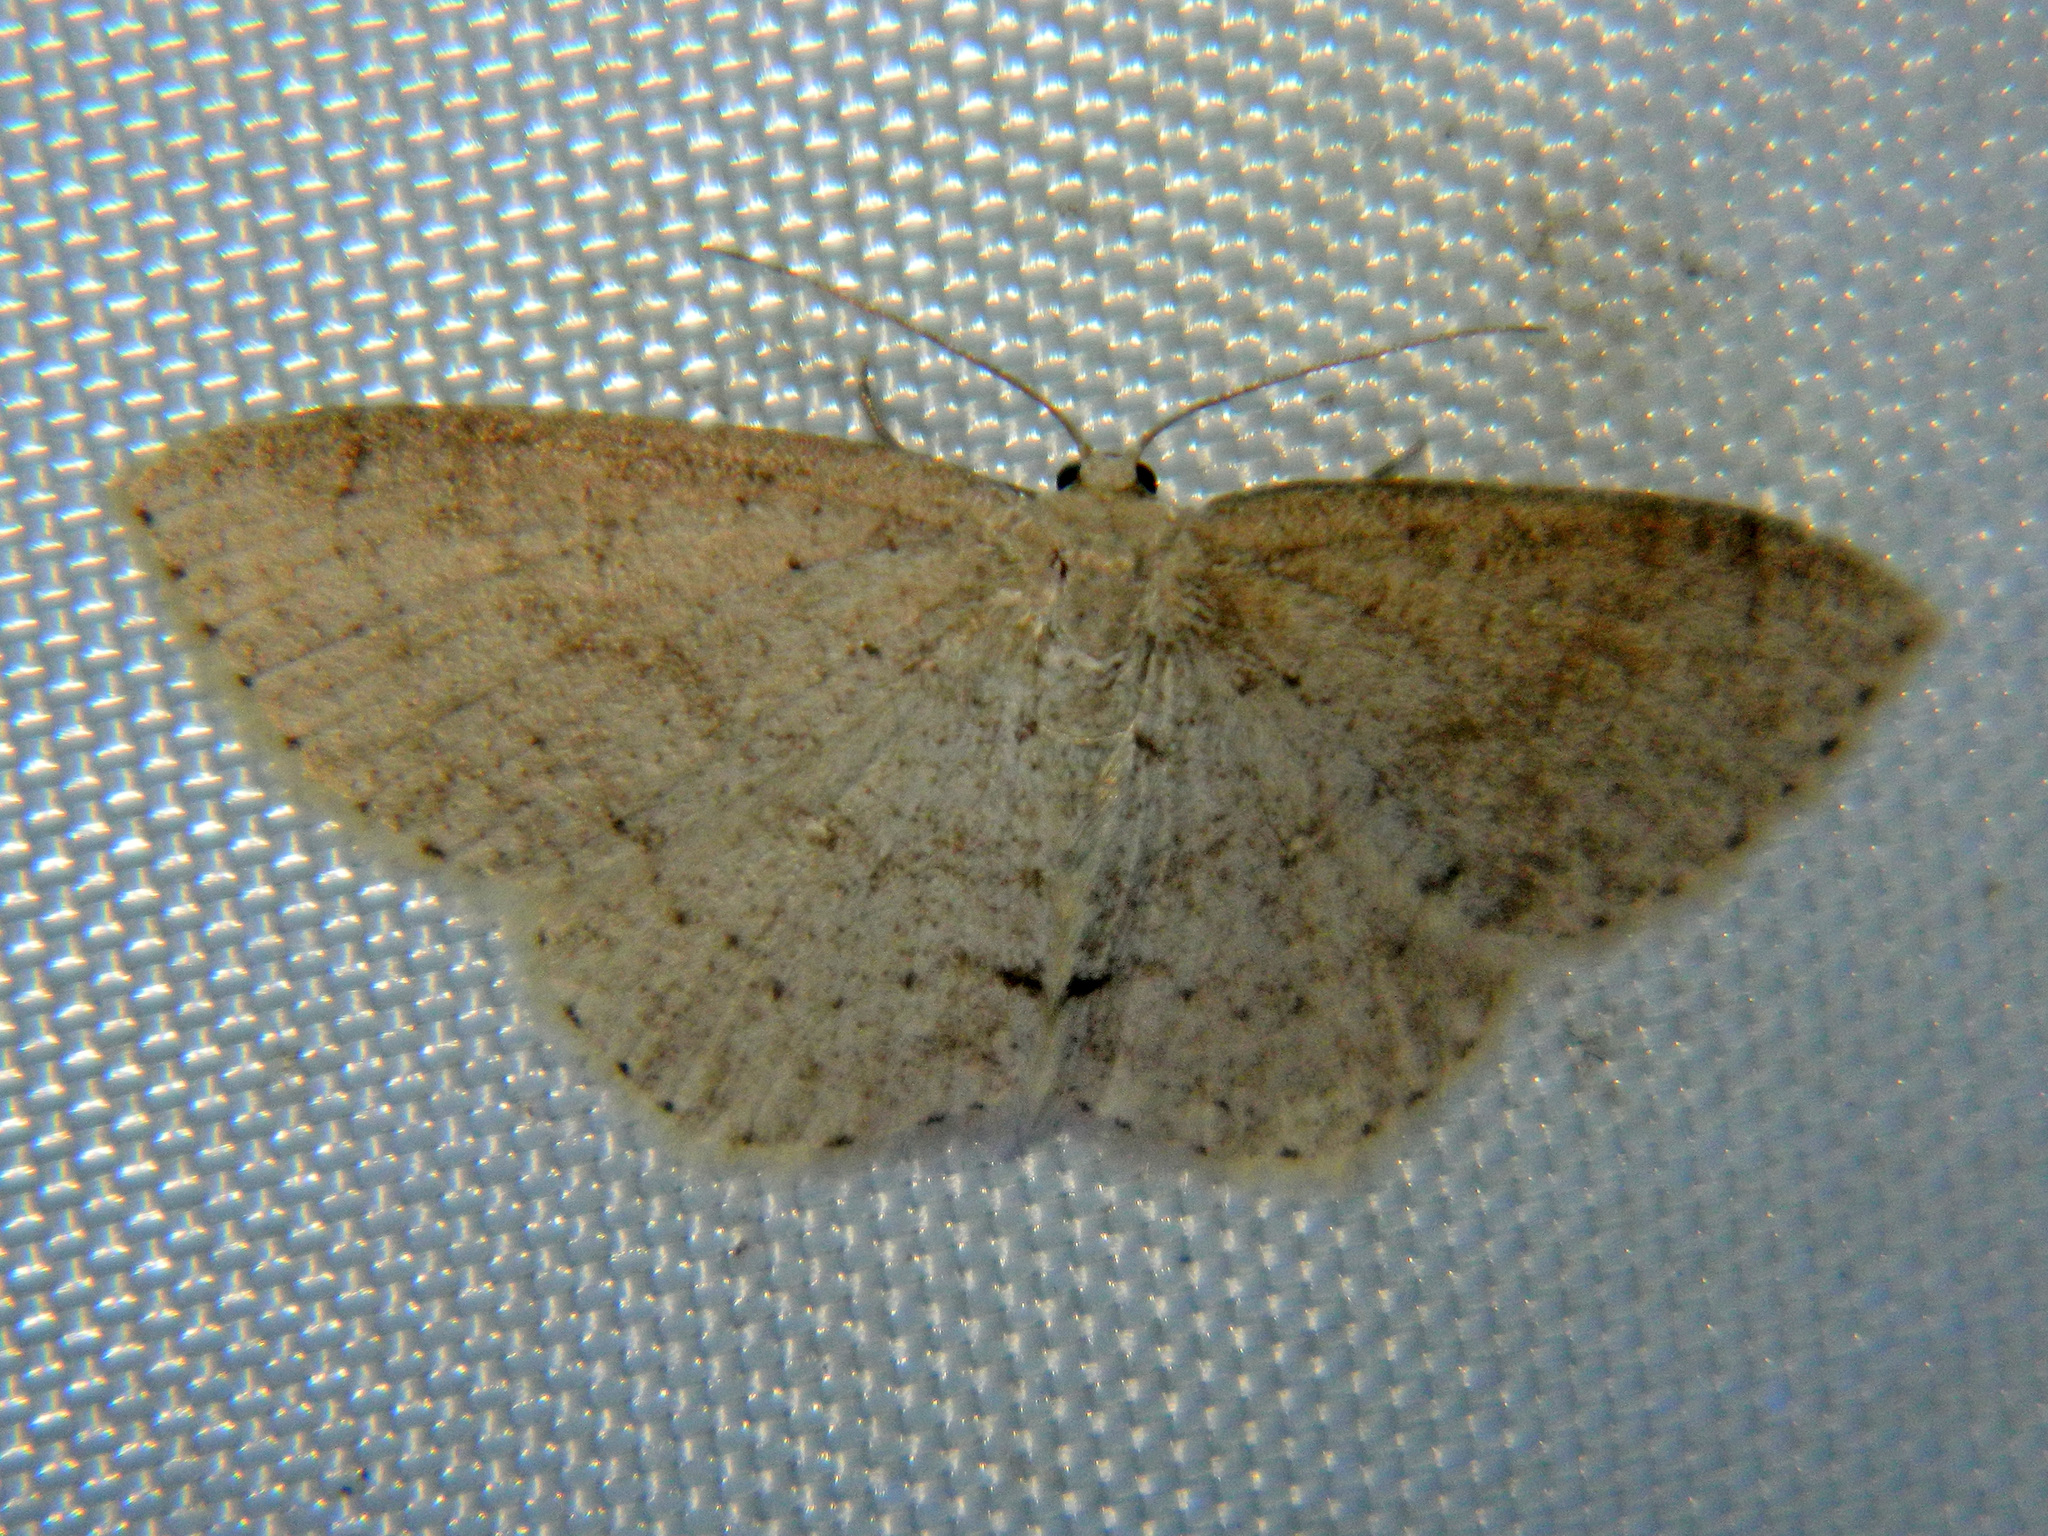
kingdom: Animalia
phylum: Arthropoda
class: Insecta
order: Lepidoptera
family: Geometridae
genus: Cyclophora
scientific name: Cyclophora pendulinaria
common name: Sweet fern geometer
